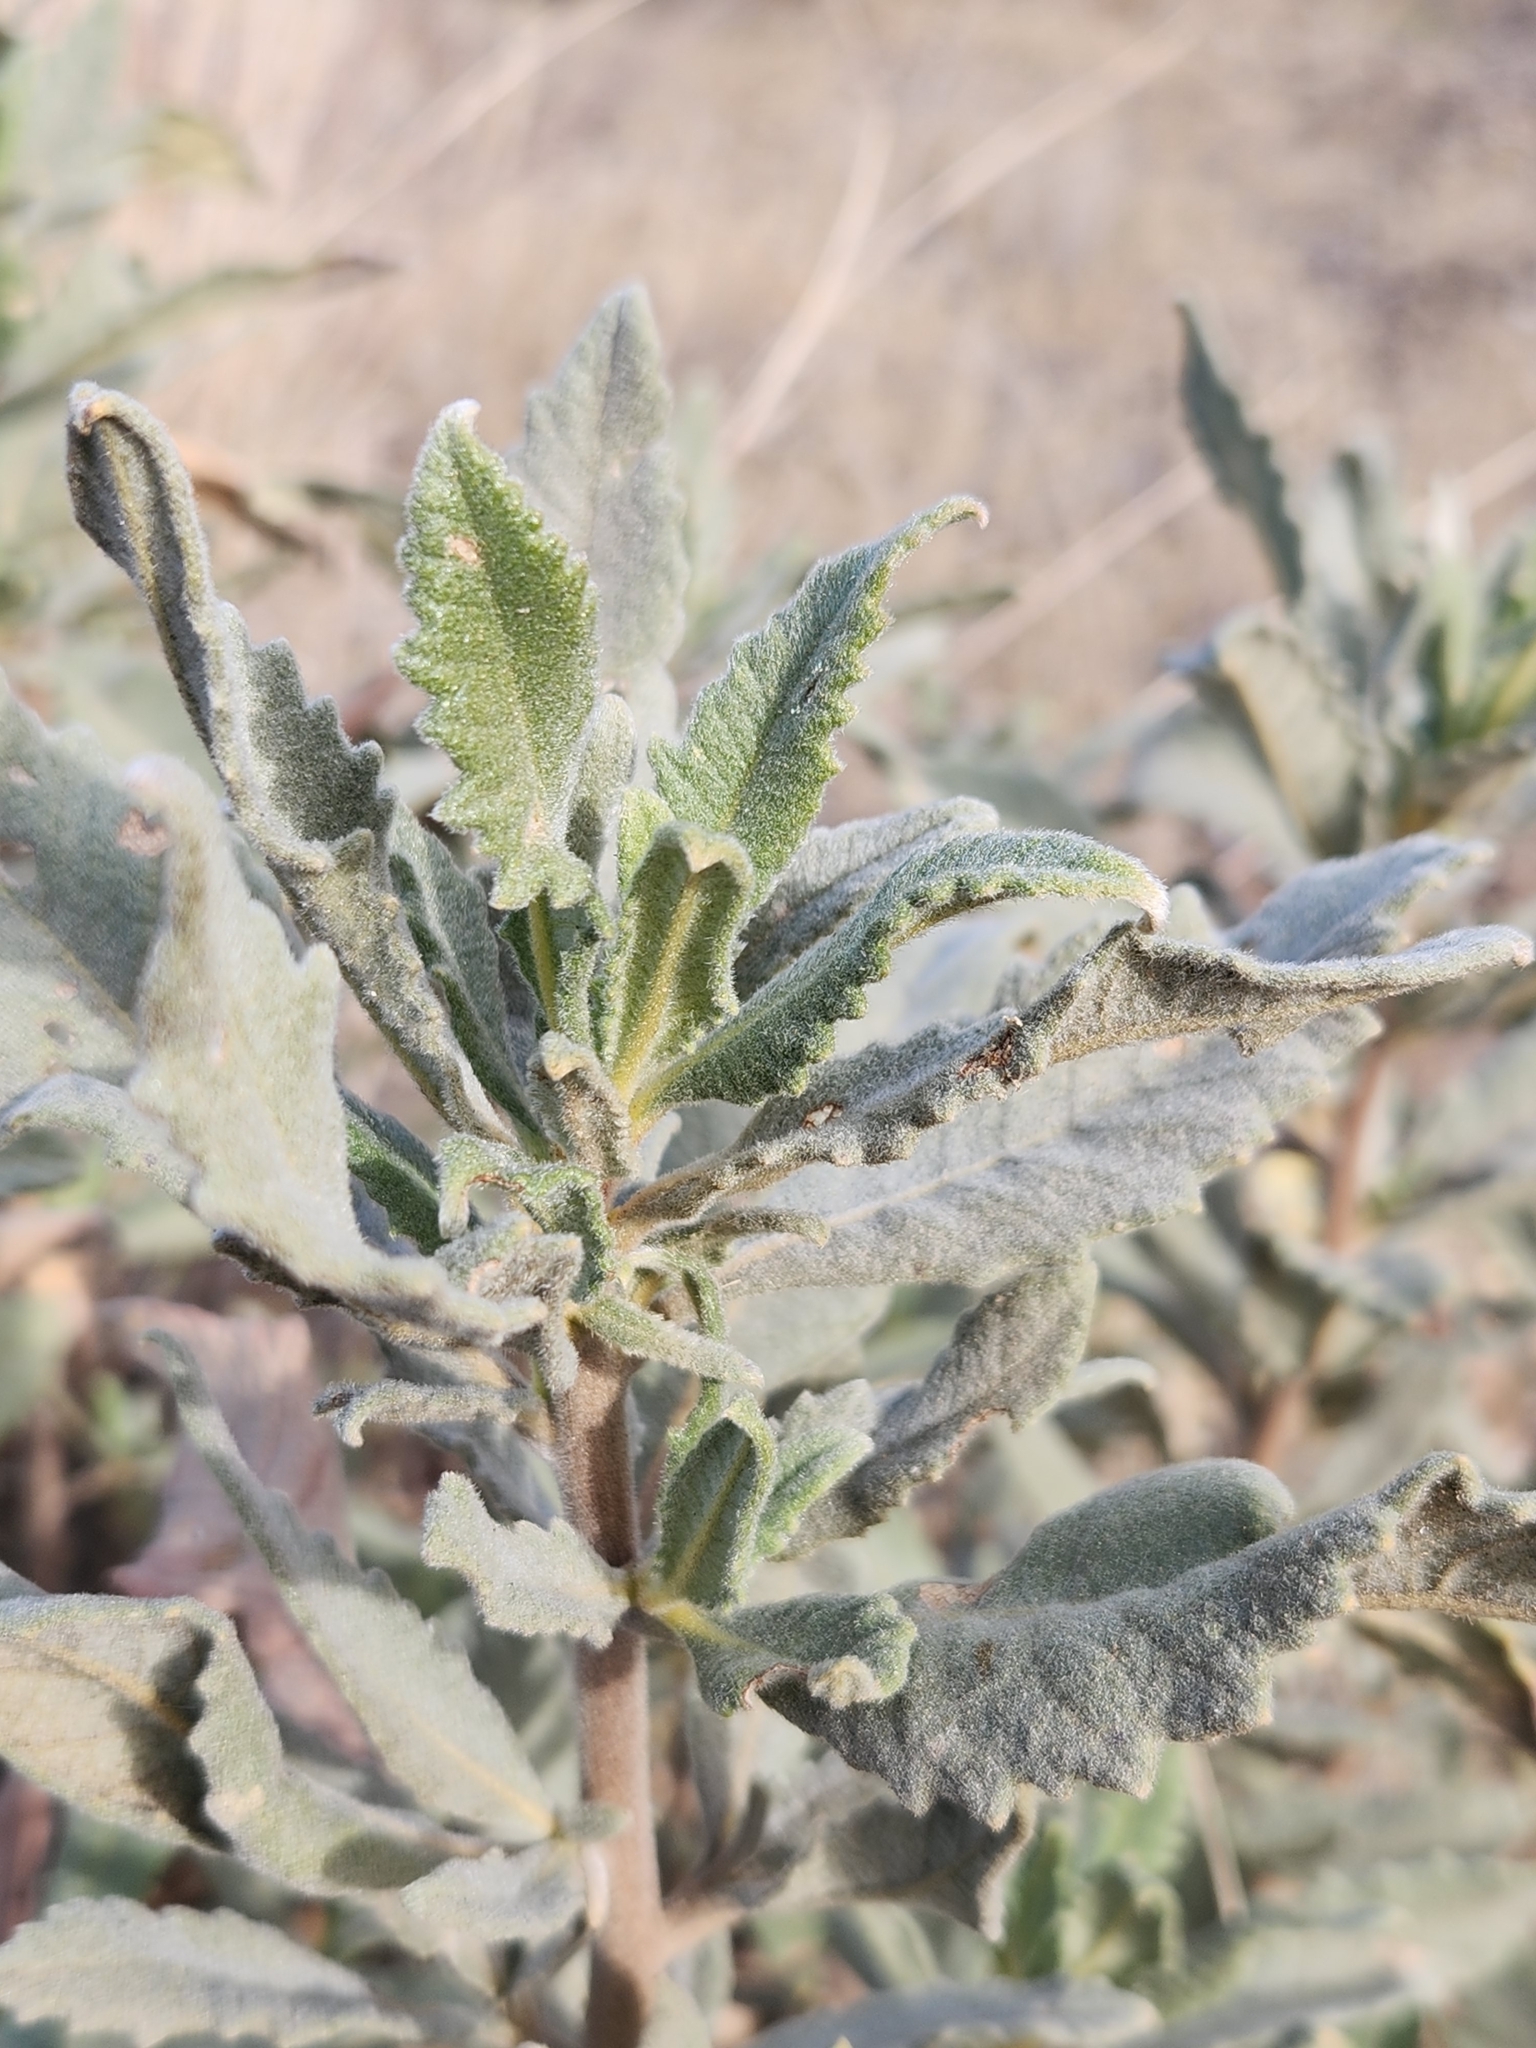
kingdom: Plantae
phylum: Tracheophyta
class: Magnoliopsida
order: Boraginales
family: Namaceae
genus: Eriodictyon
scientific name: Eriodictyon crassifolium
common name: Thick-leaf yerba-santa
